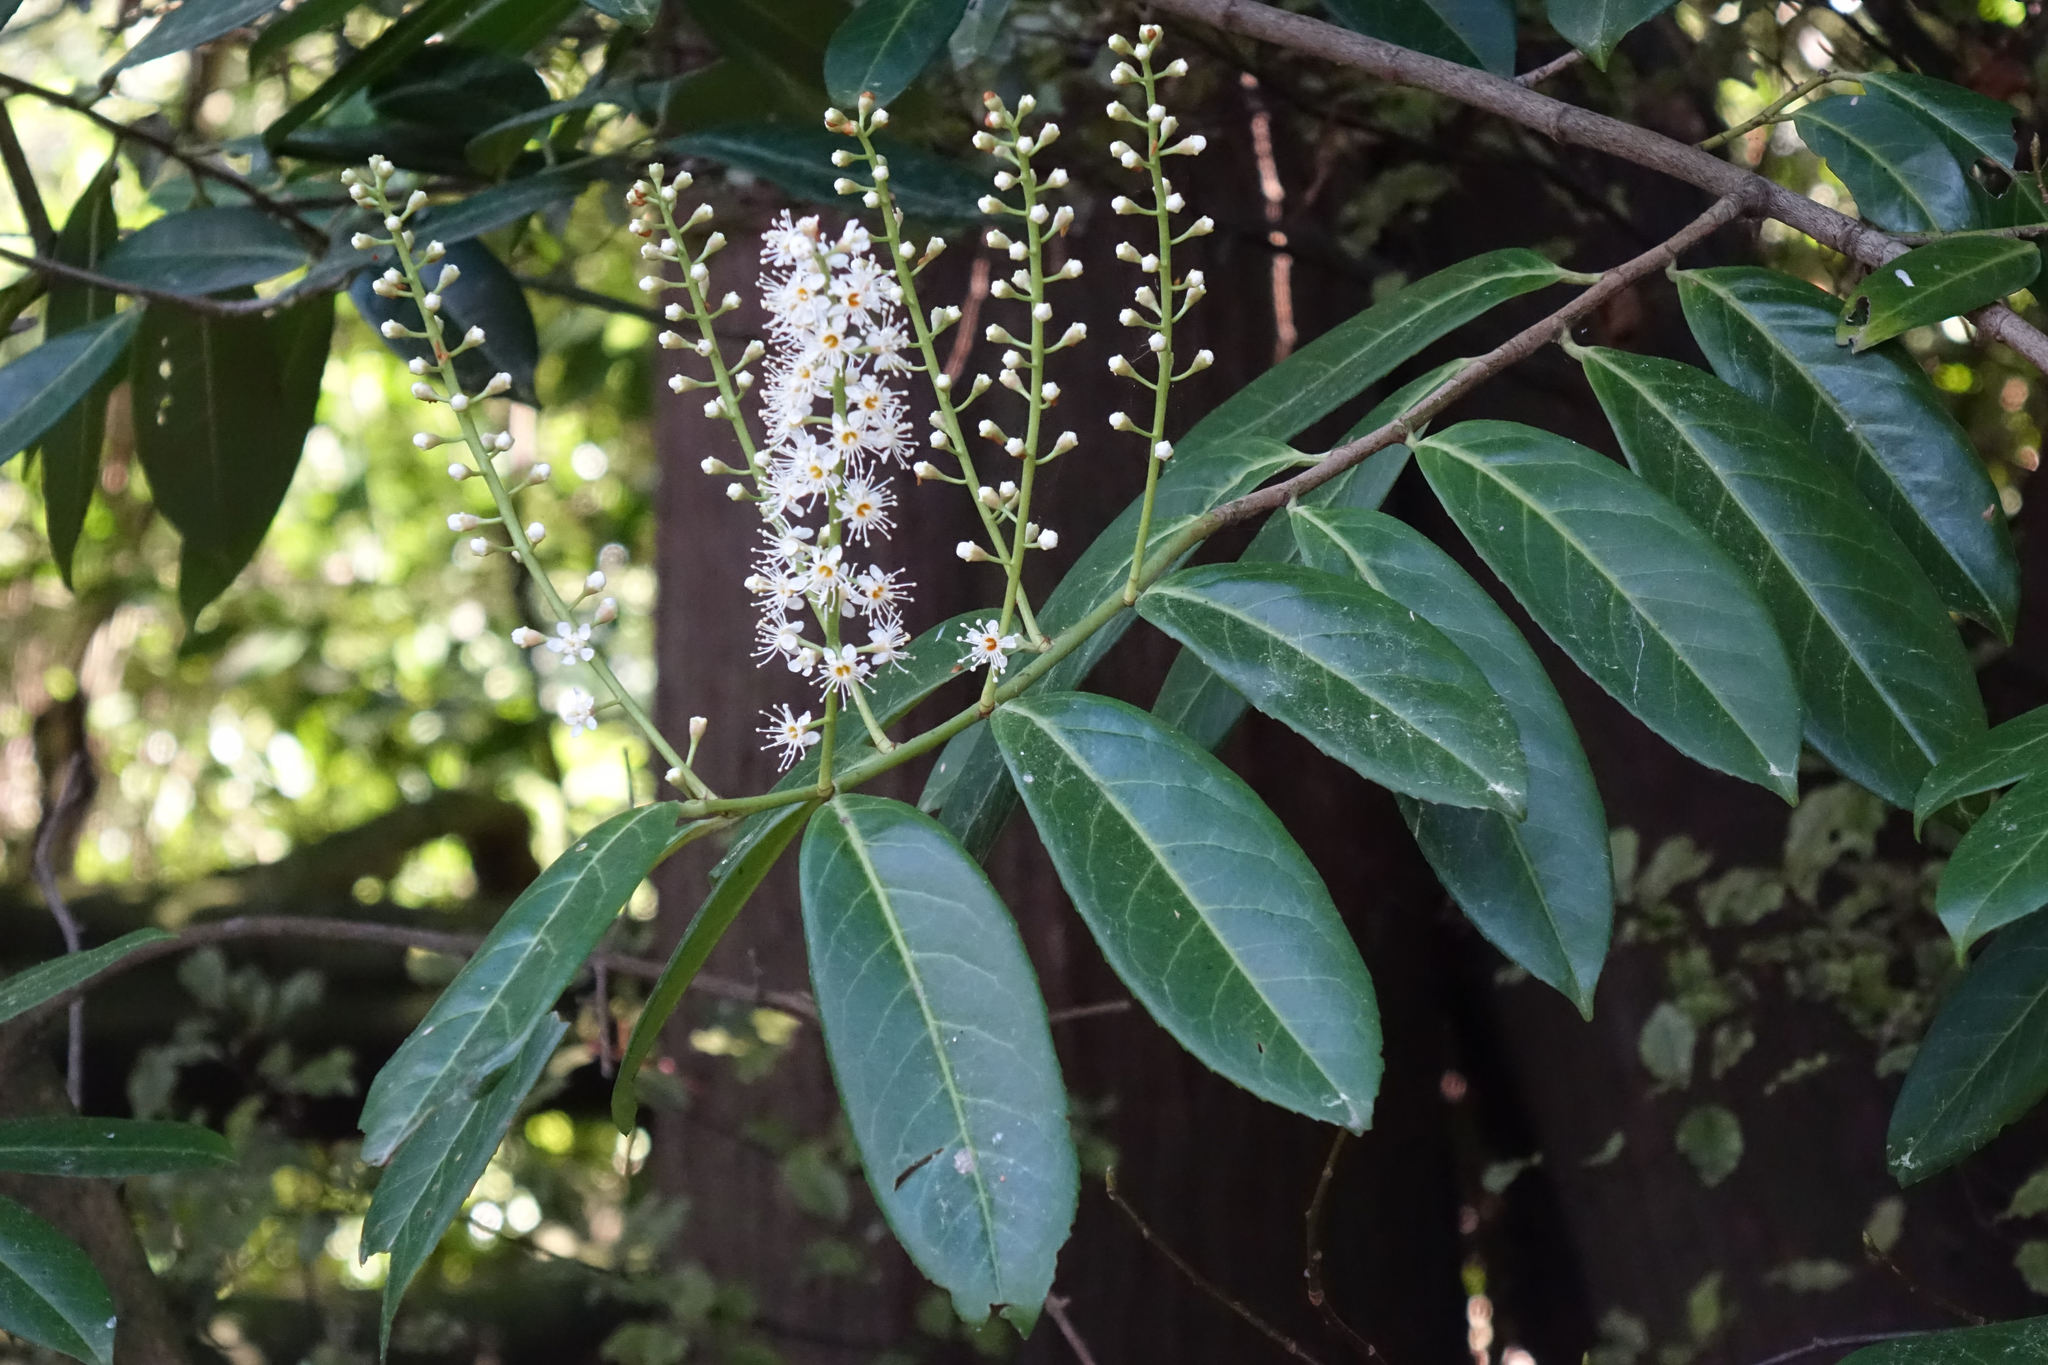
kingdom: Plantae
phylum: Tracheophyta
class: Magnoliopsida
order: Rosales
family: Rosaceae
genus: Prunus
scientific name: Prunus laurocerasus
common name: Cherry laurel
